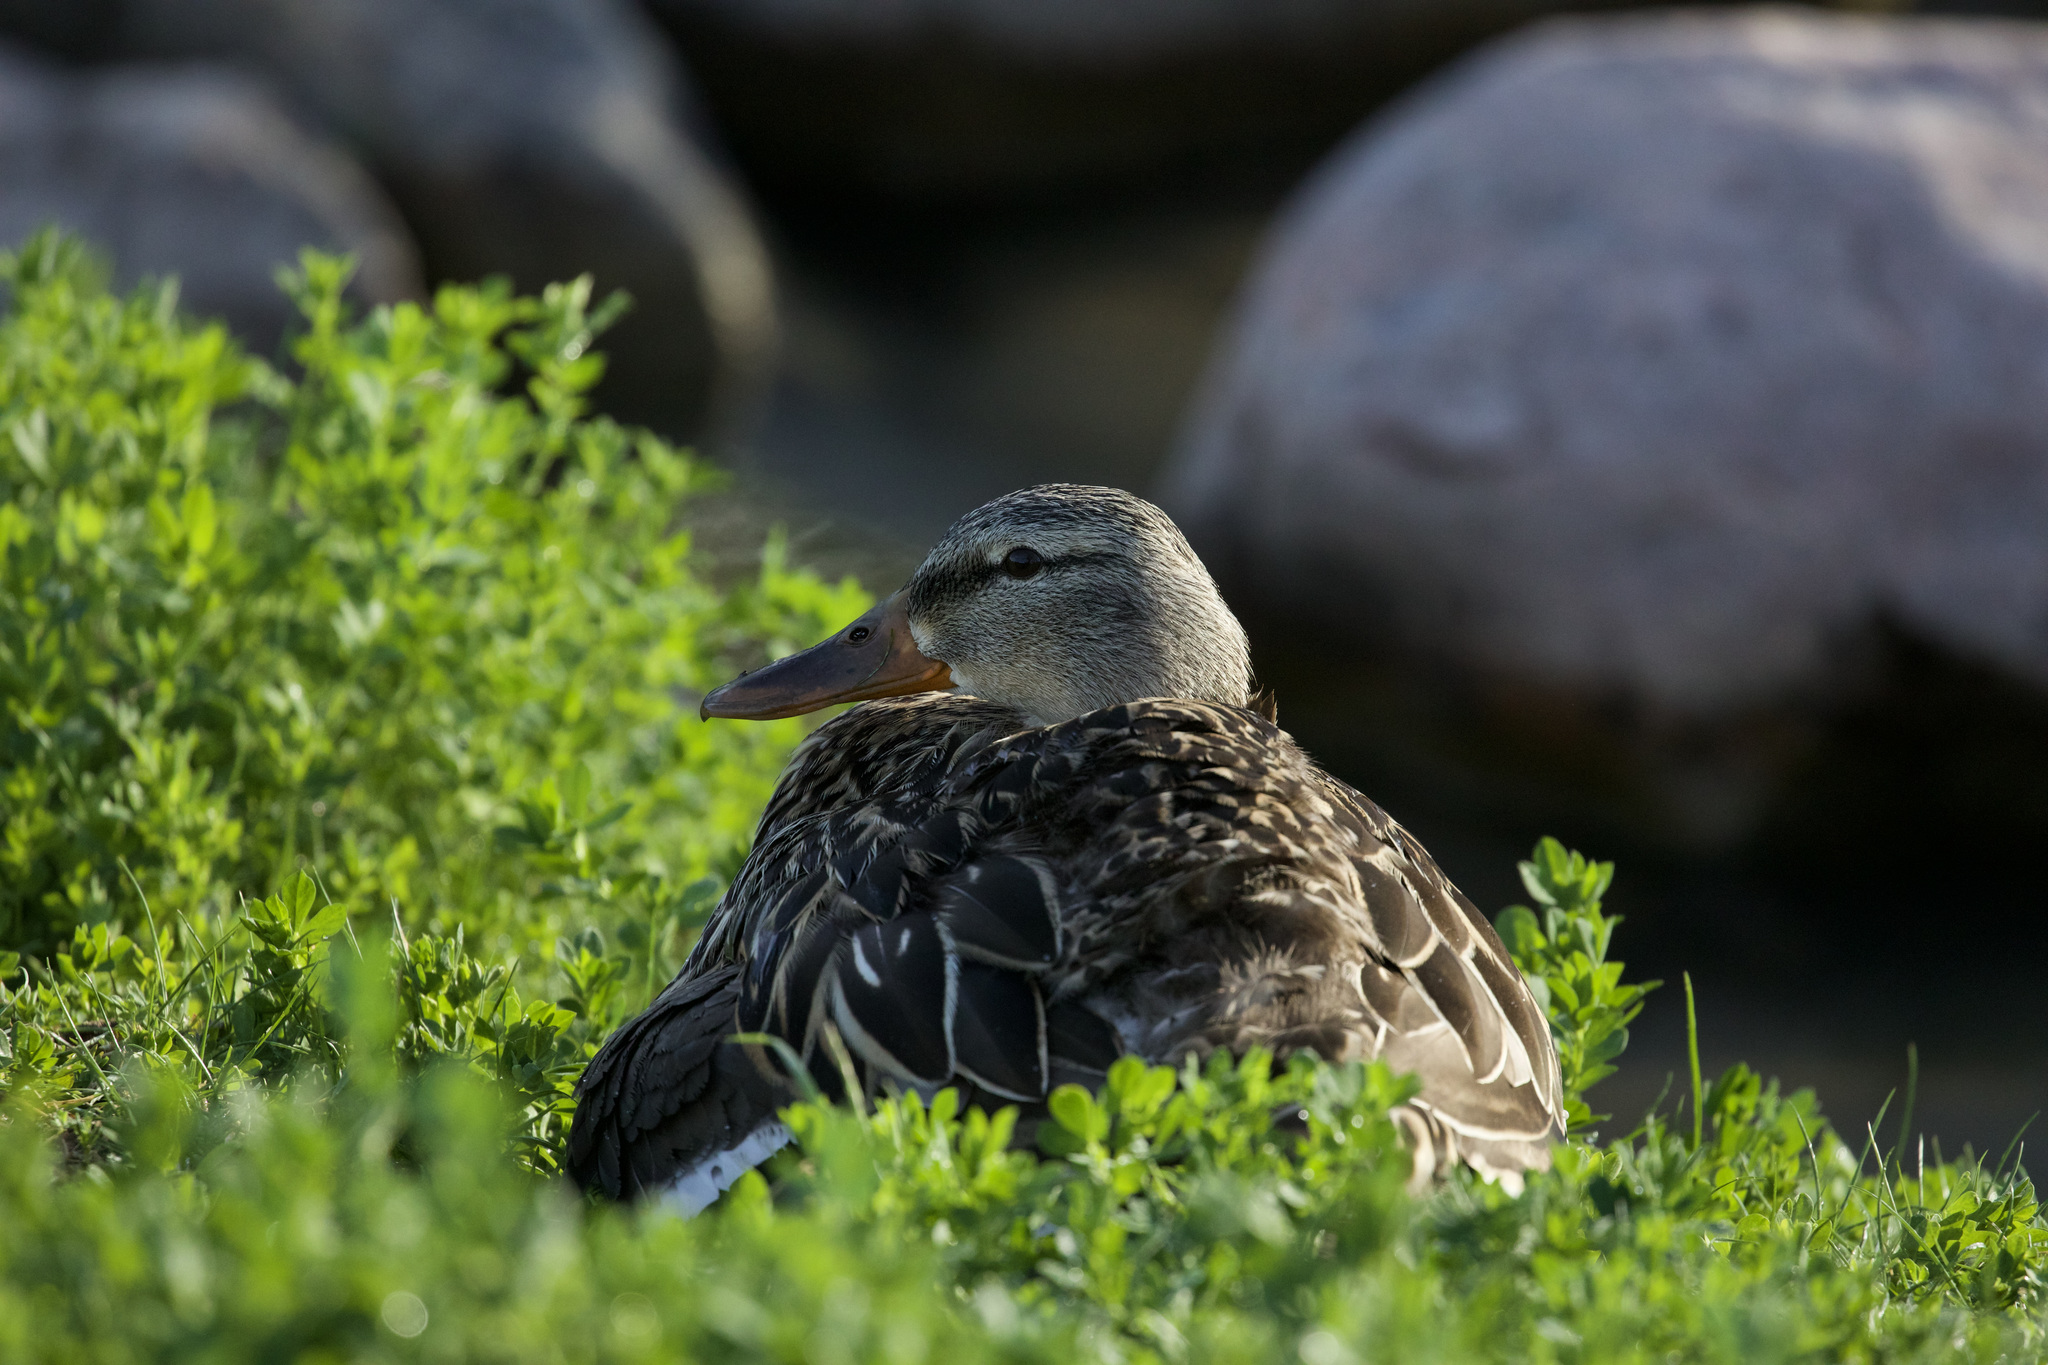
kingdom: Animalia
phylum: Chordata
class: Aves
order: Anseriformes
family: Anatidae
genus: Anas
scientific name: Anas platyrhynchos
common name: Mallard
